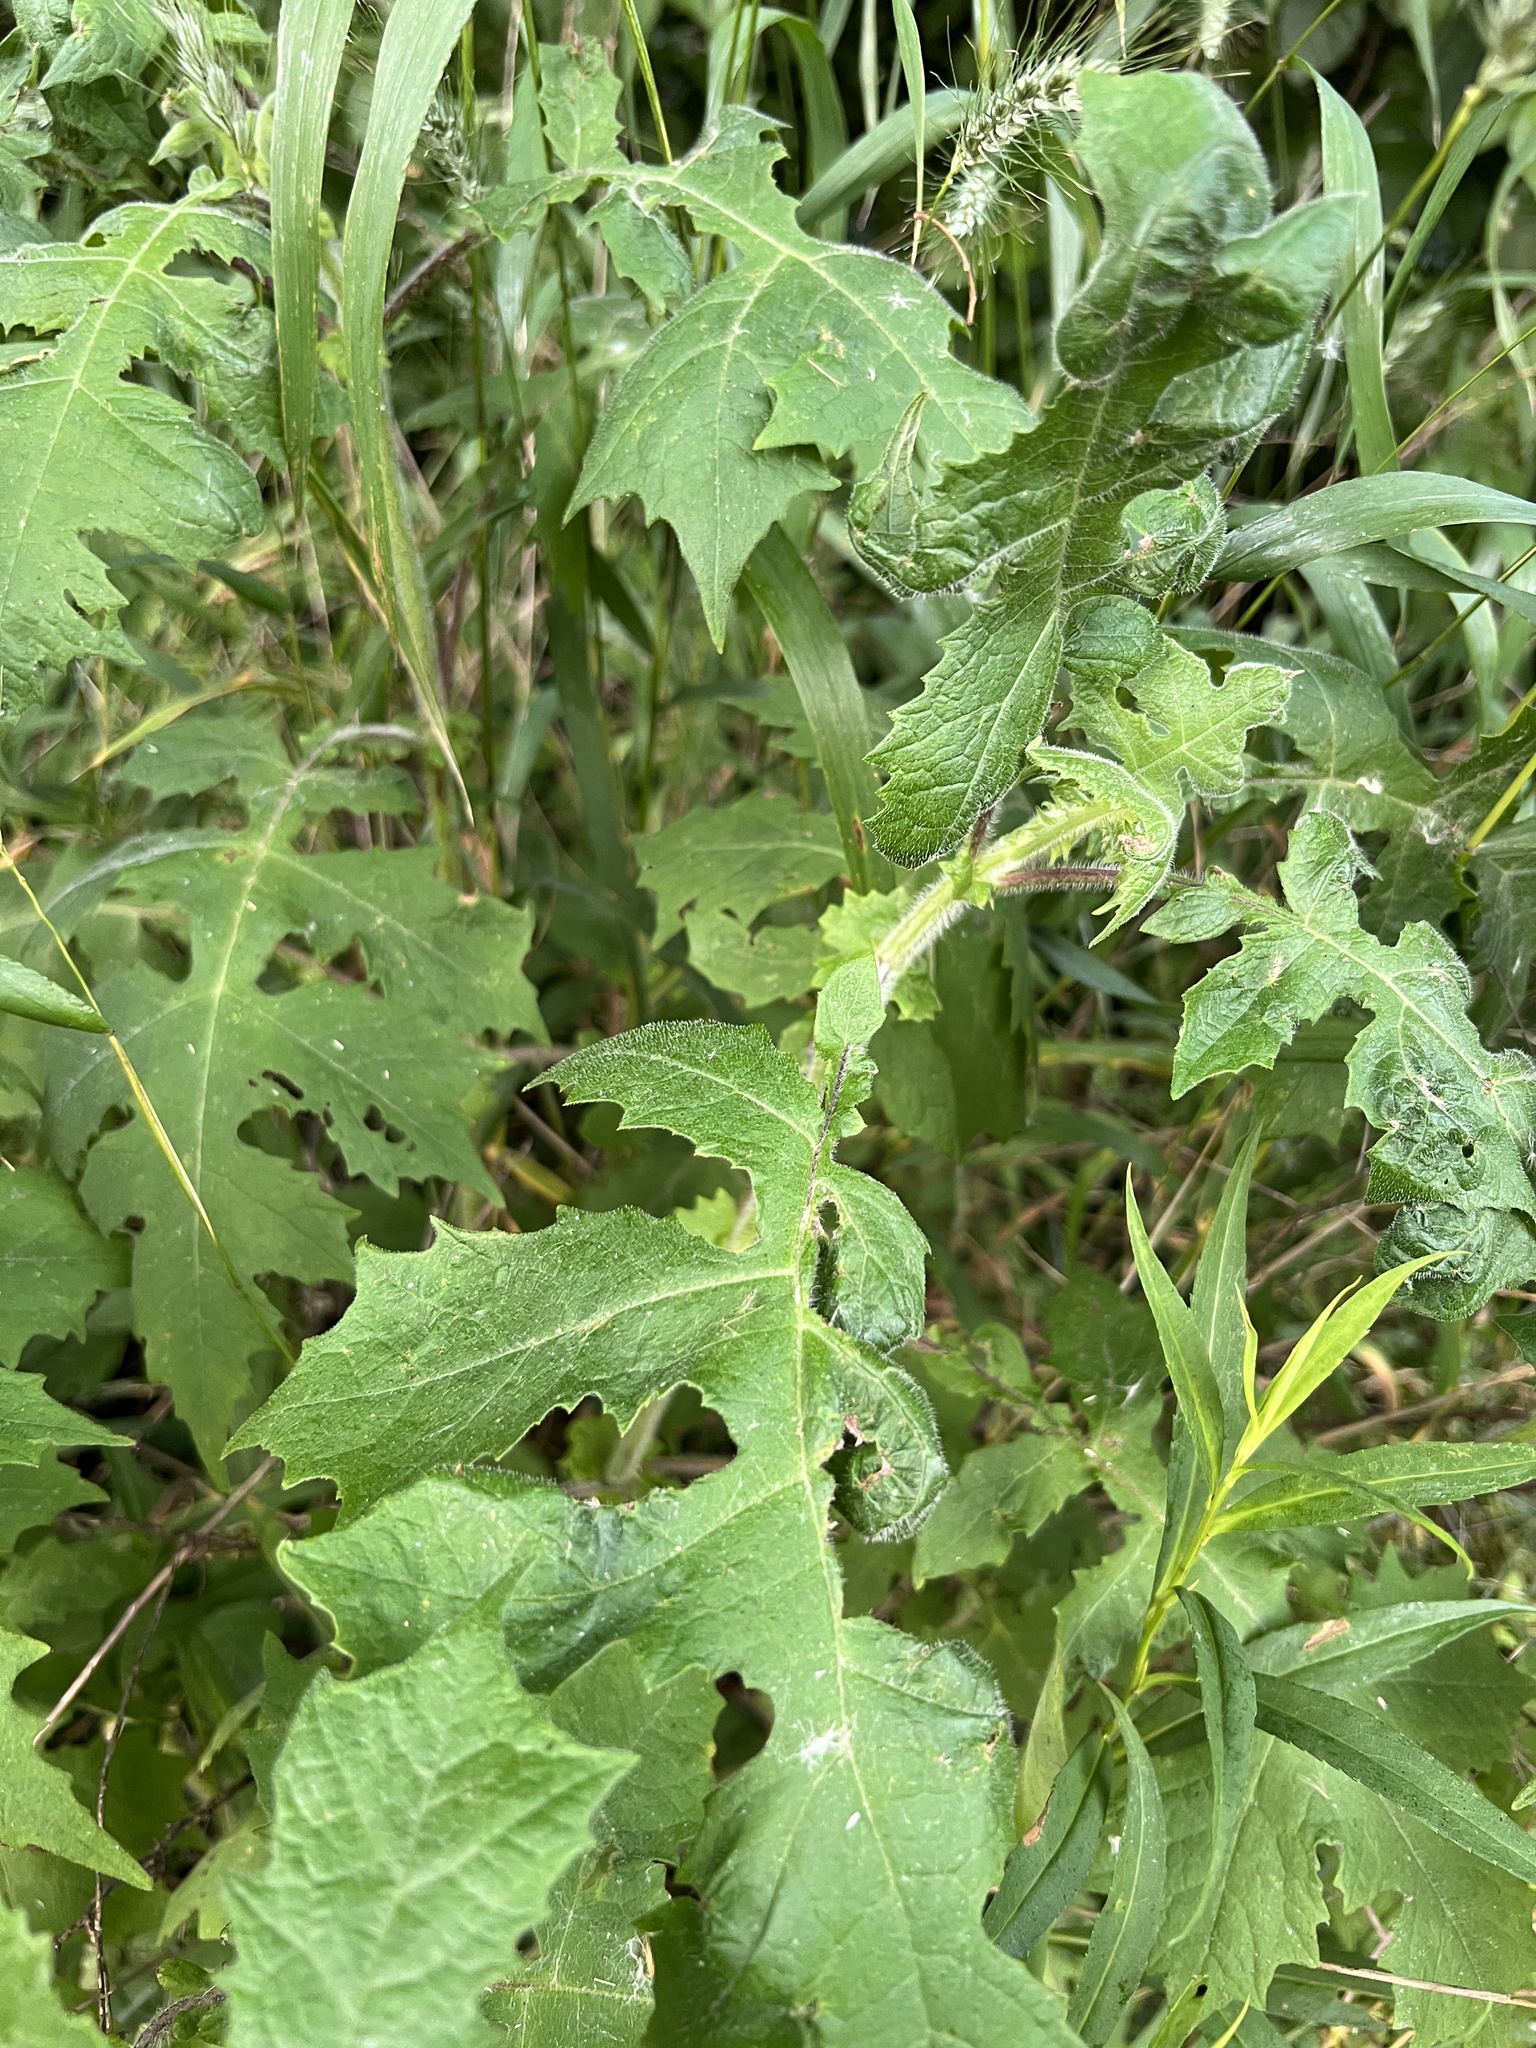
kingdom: Plantae
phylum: Tracheophyta
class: Magnoliopsida
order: Asterales
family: Asteraceae
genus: Polymnia
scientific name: Polymnia canadensis
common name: Pale-flowered leafcup
